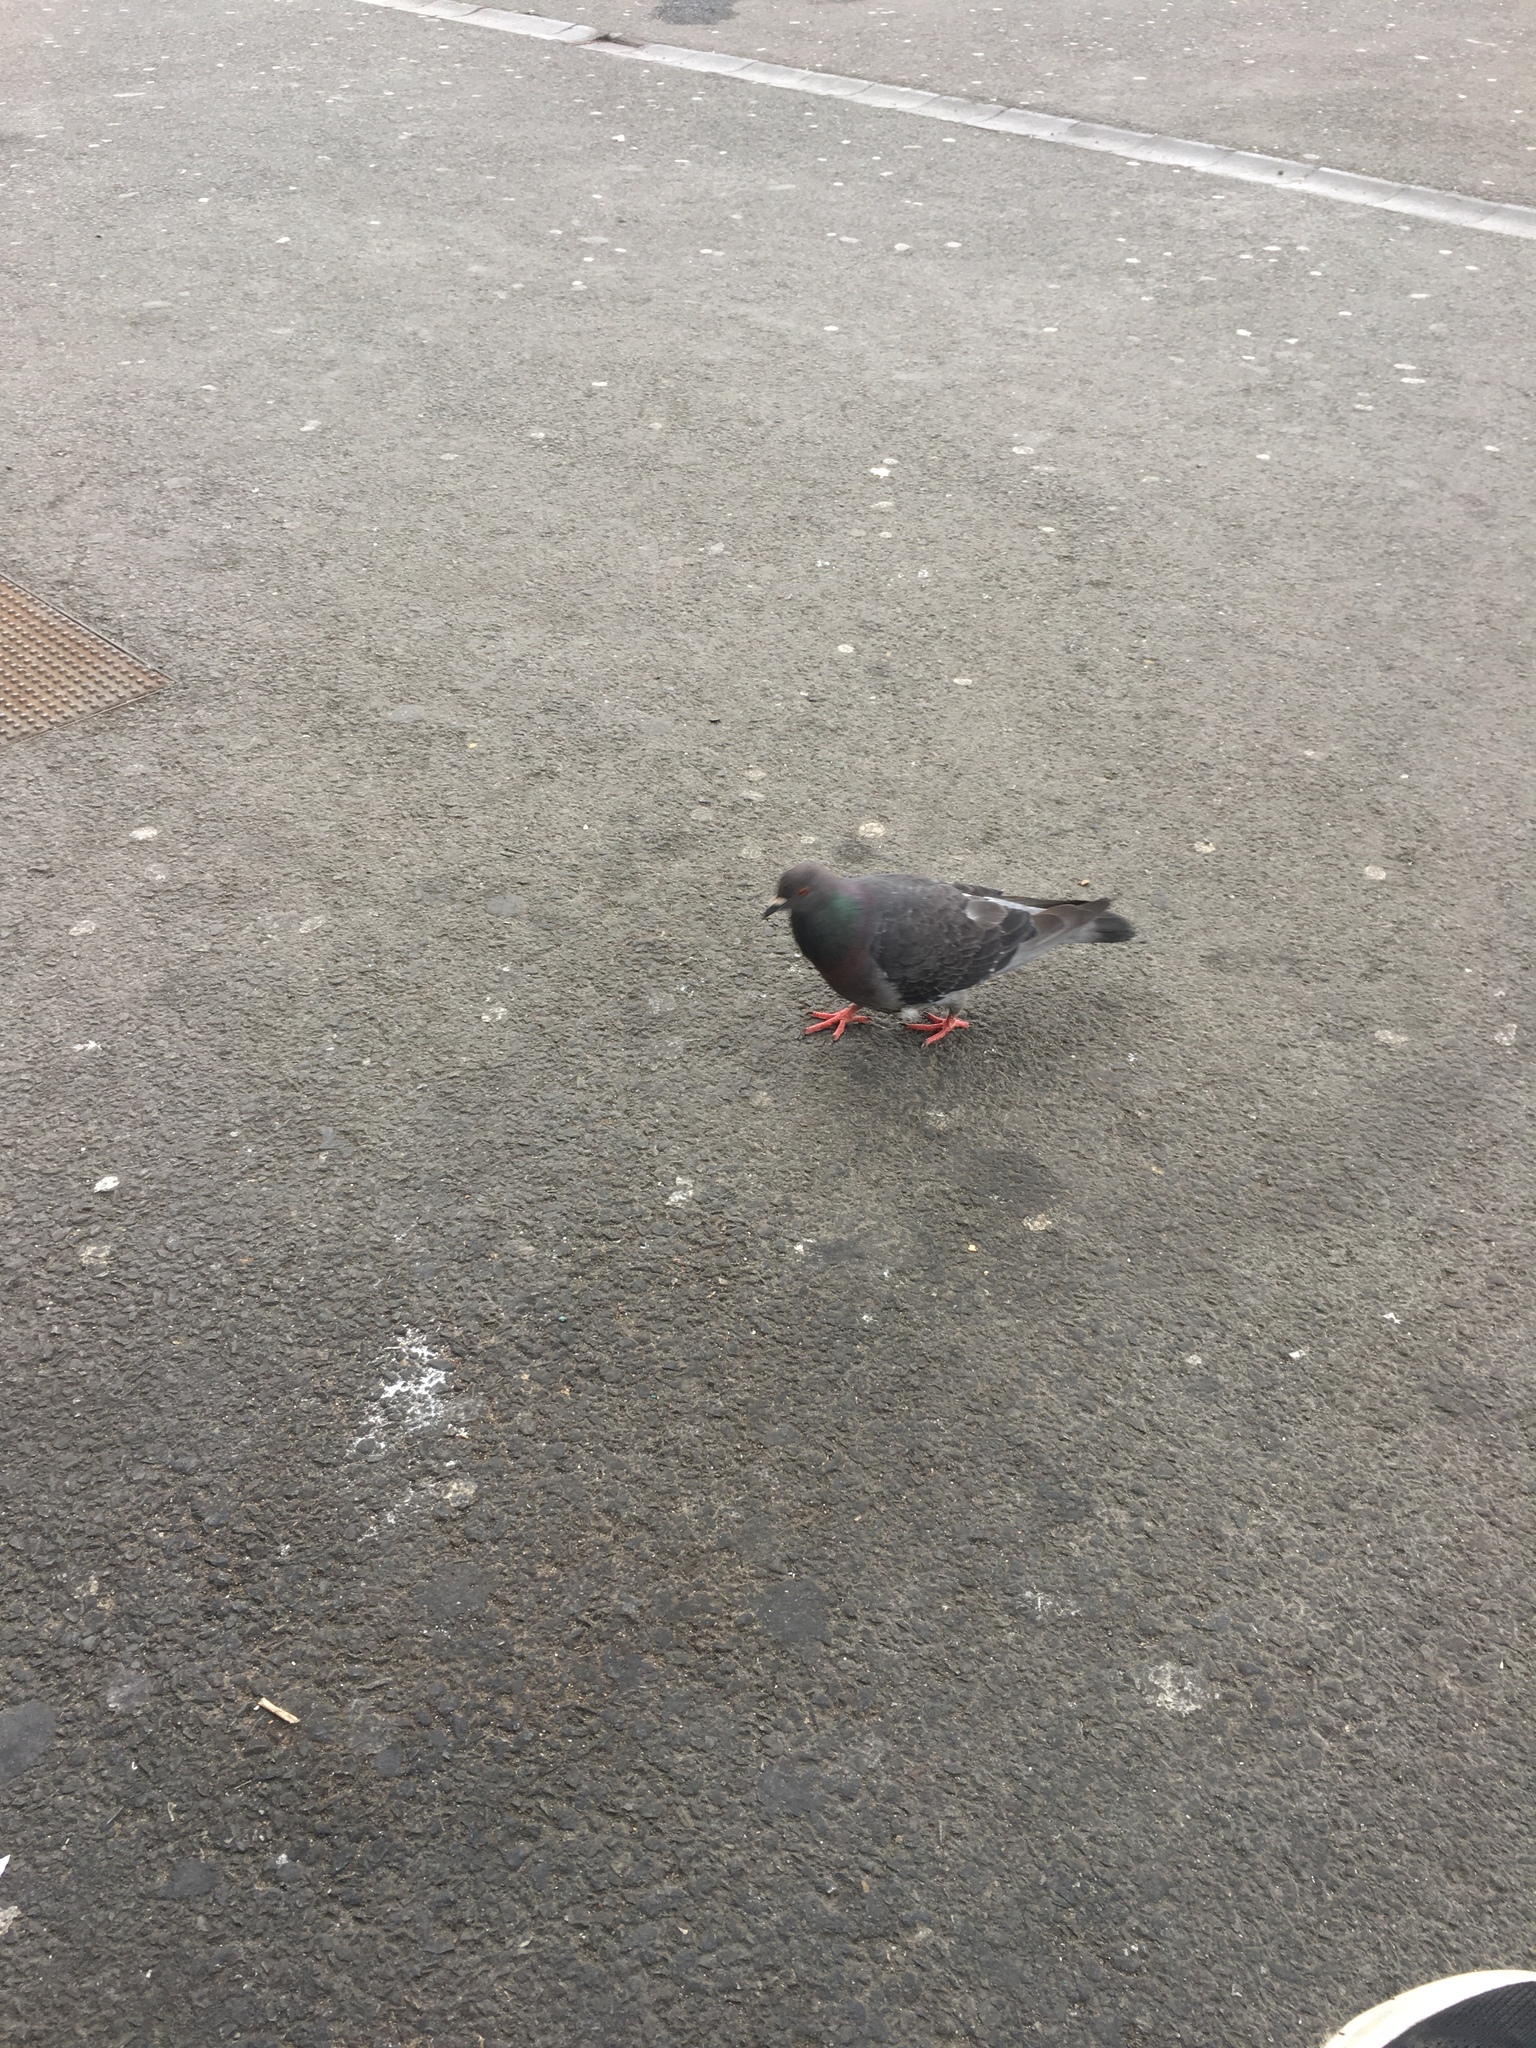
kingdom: Animalia
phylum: Chordata
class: Aves
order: Columbiformes
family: Columbidae
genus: Columba
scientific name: Columba livia
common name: Rock pigeon
